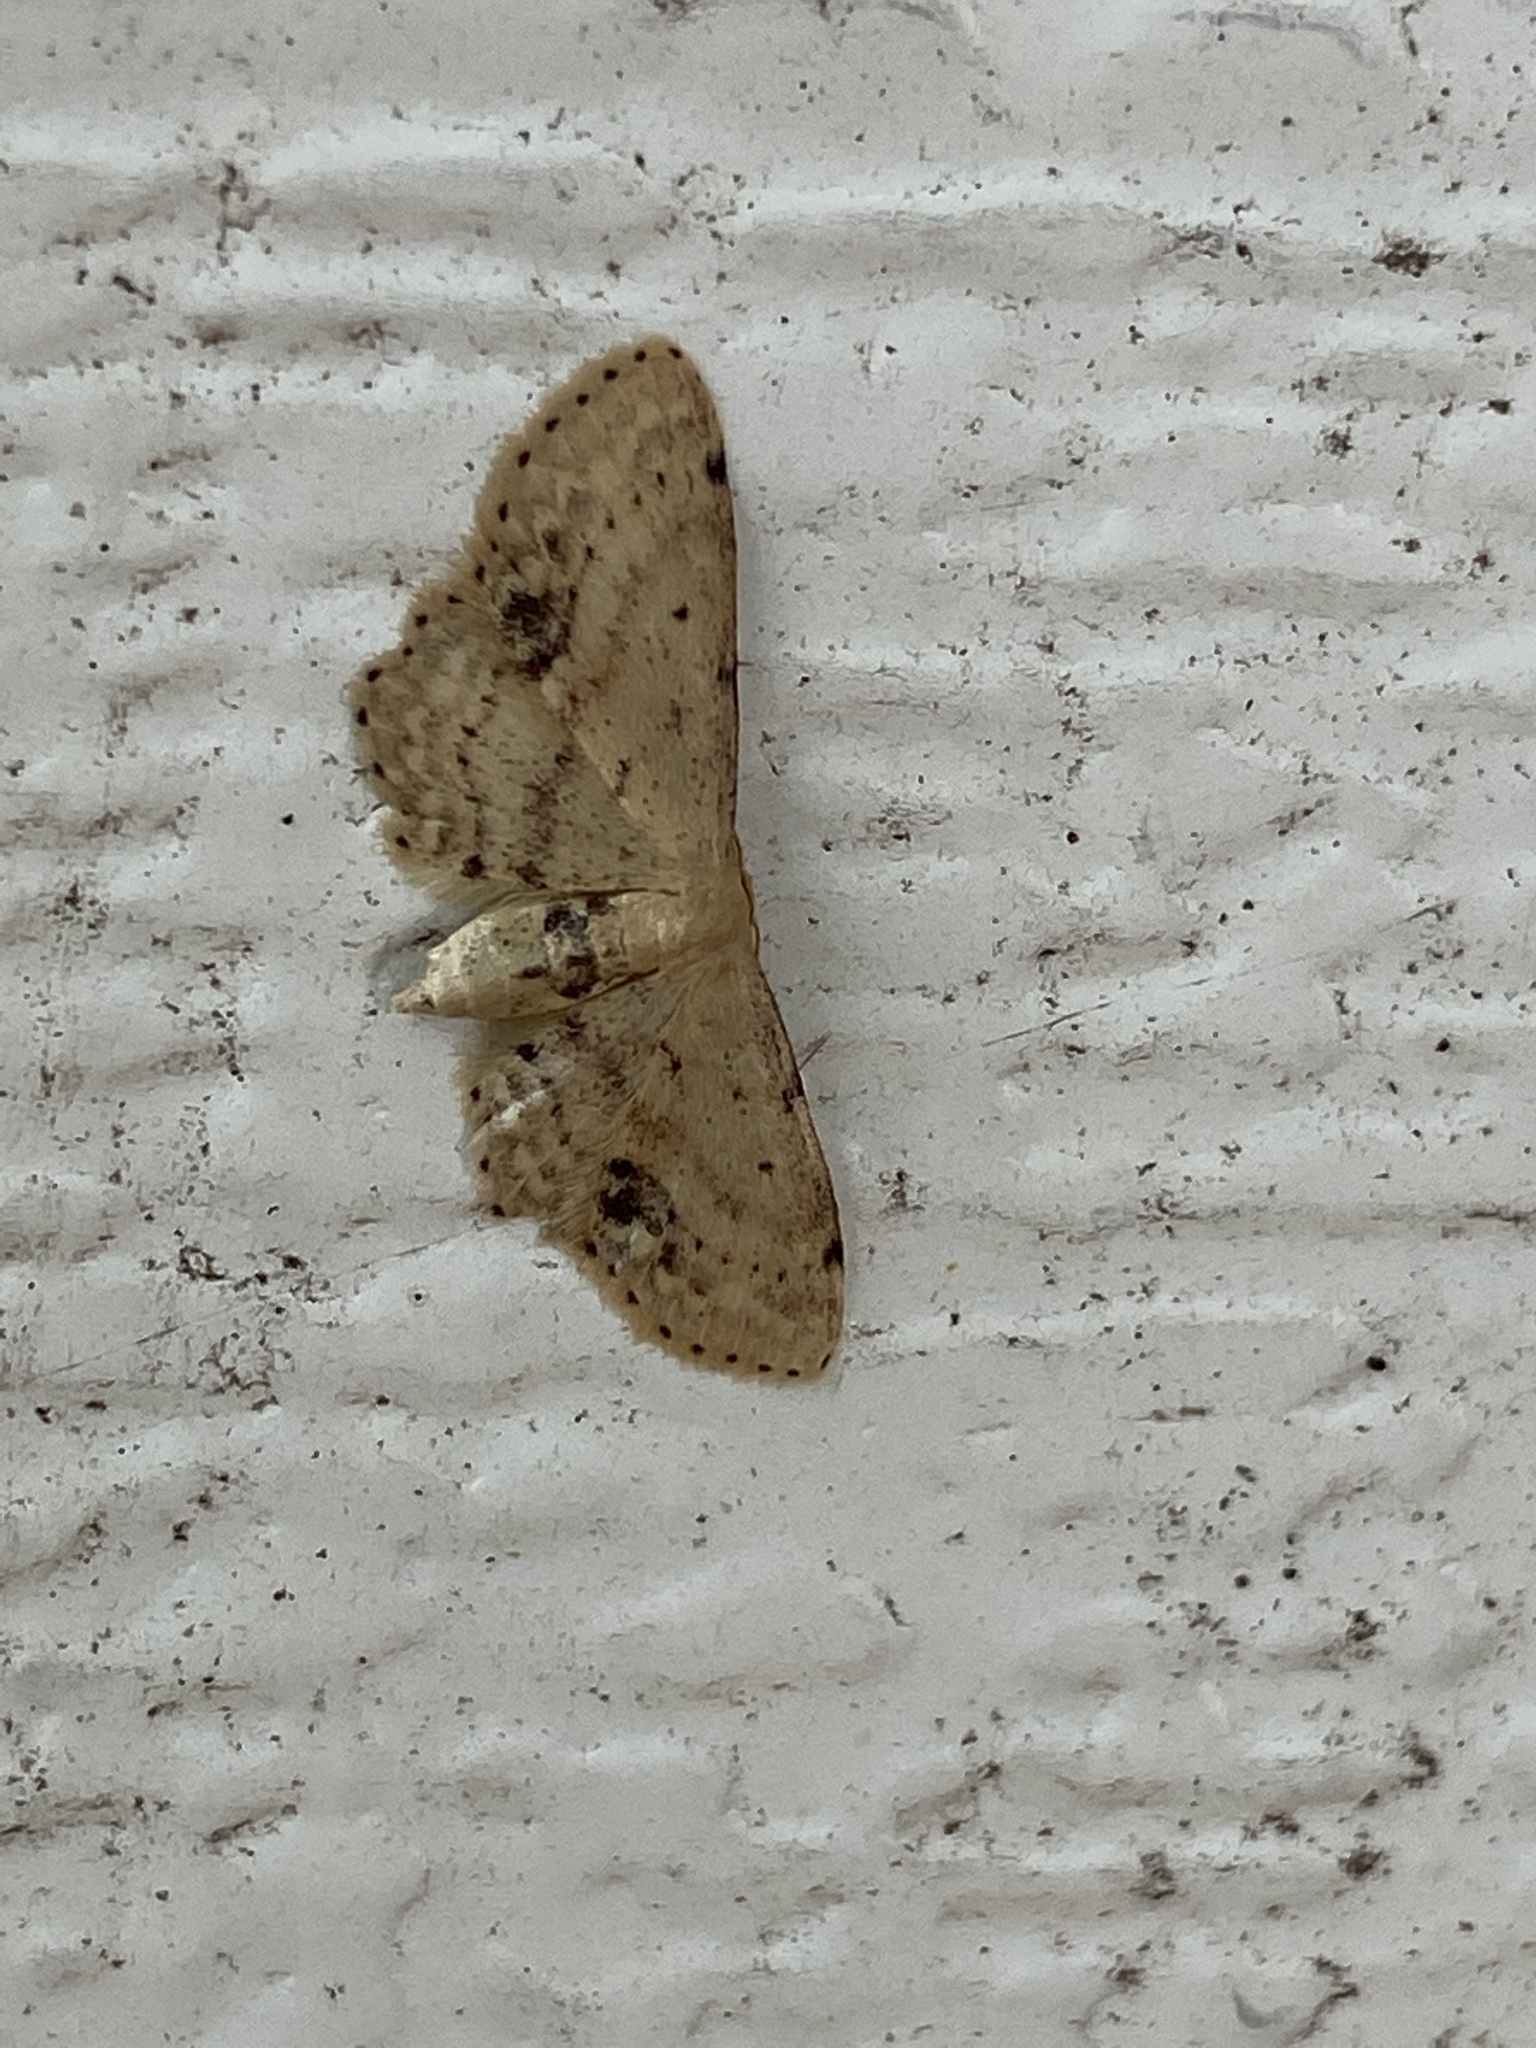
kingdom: Animalia
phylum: Arthropoda
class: Insecta
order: Lepidoptera
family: Geometridae
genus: Idaea
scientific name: Idaea dimidiata
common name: Single-dotted wave
